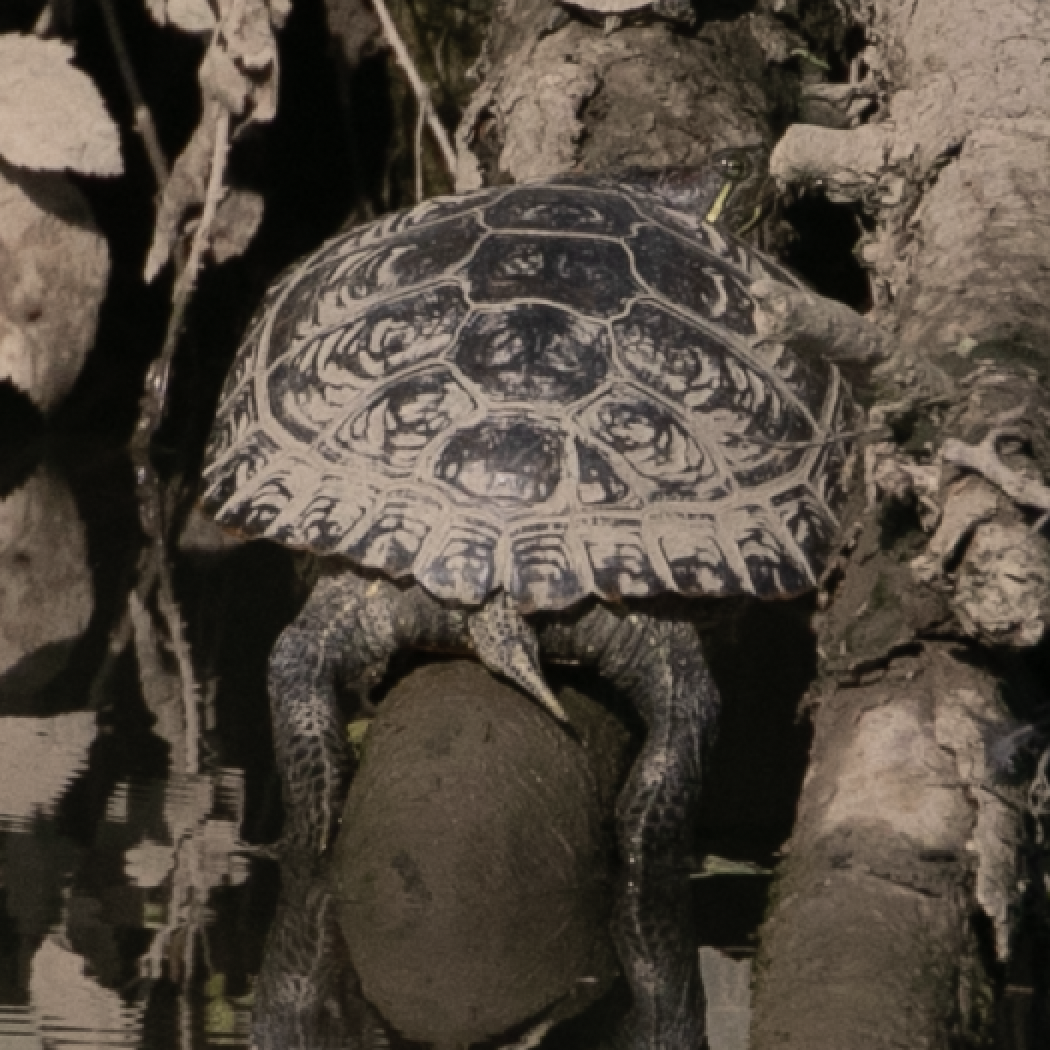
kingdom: Animalia
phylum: Chordata
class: Testudines
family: Emydidae
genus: Trachemys
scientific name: Trachemys scripta
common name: Slider
